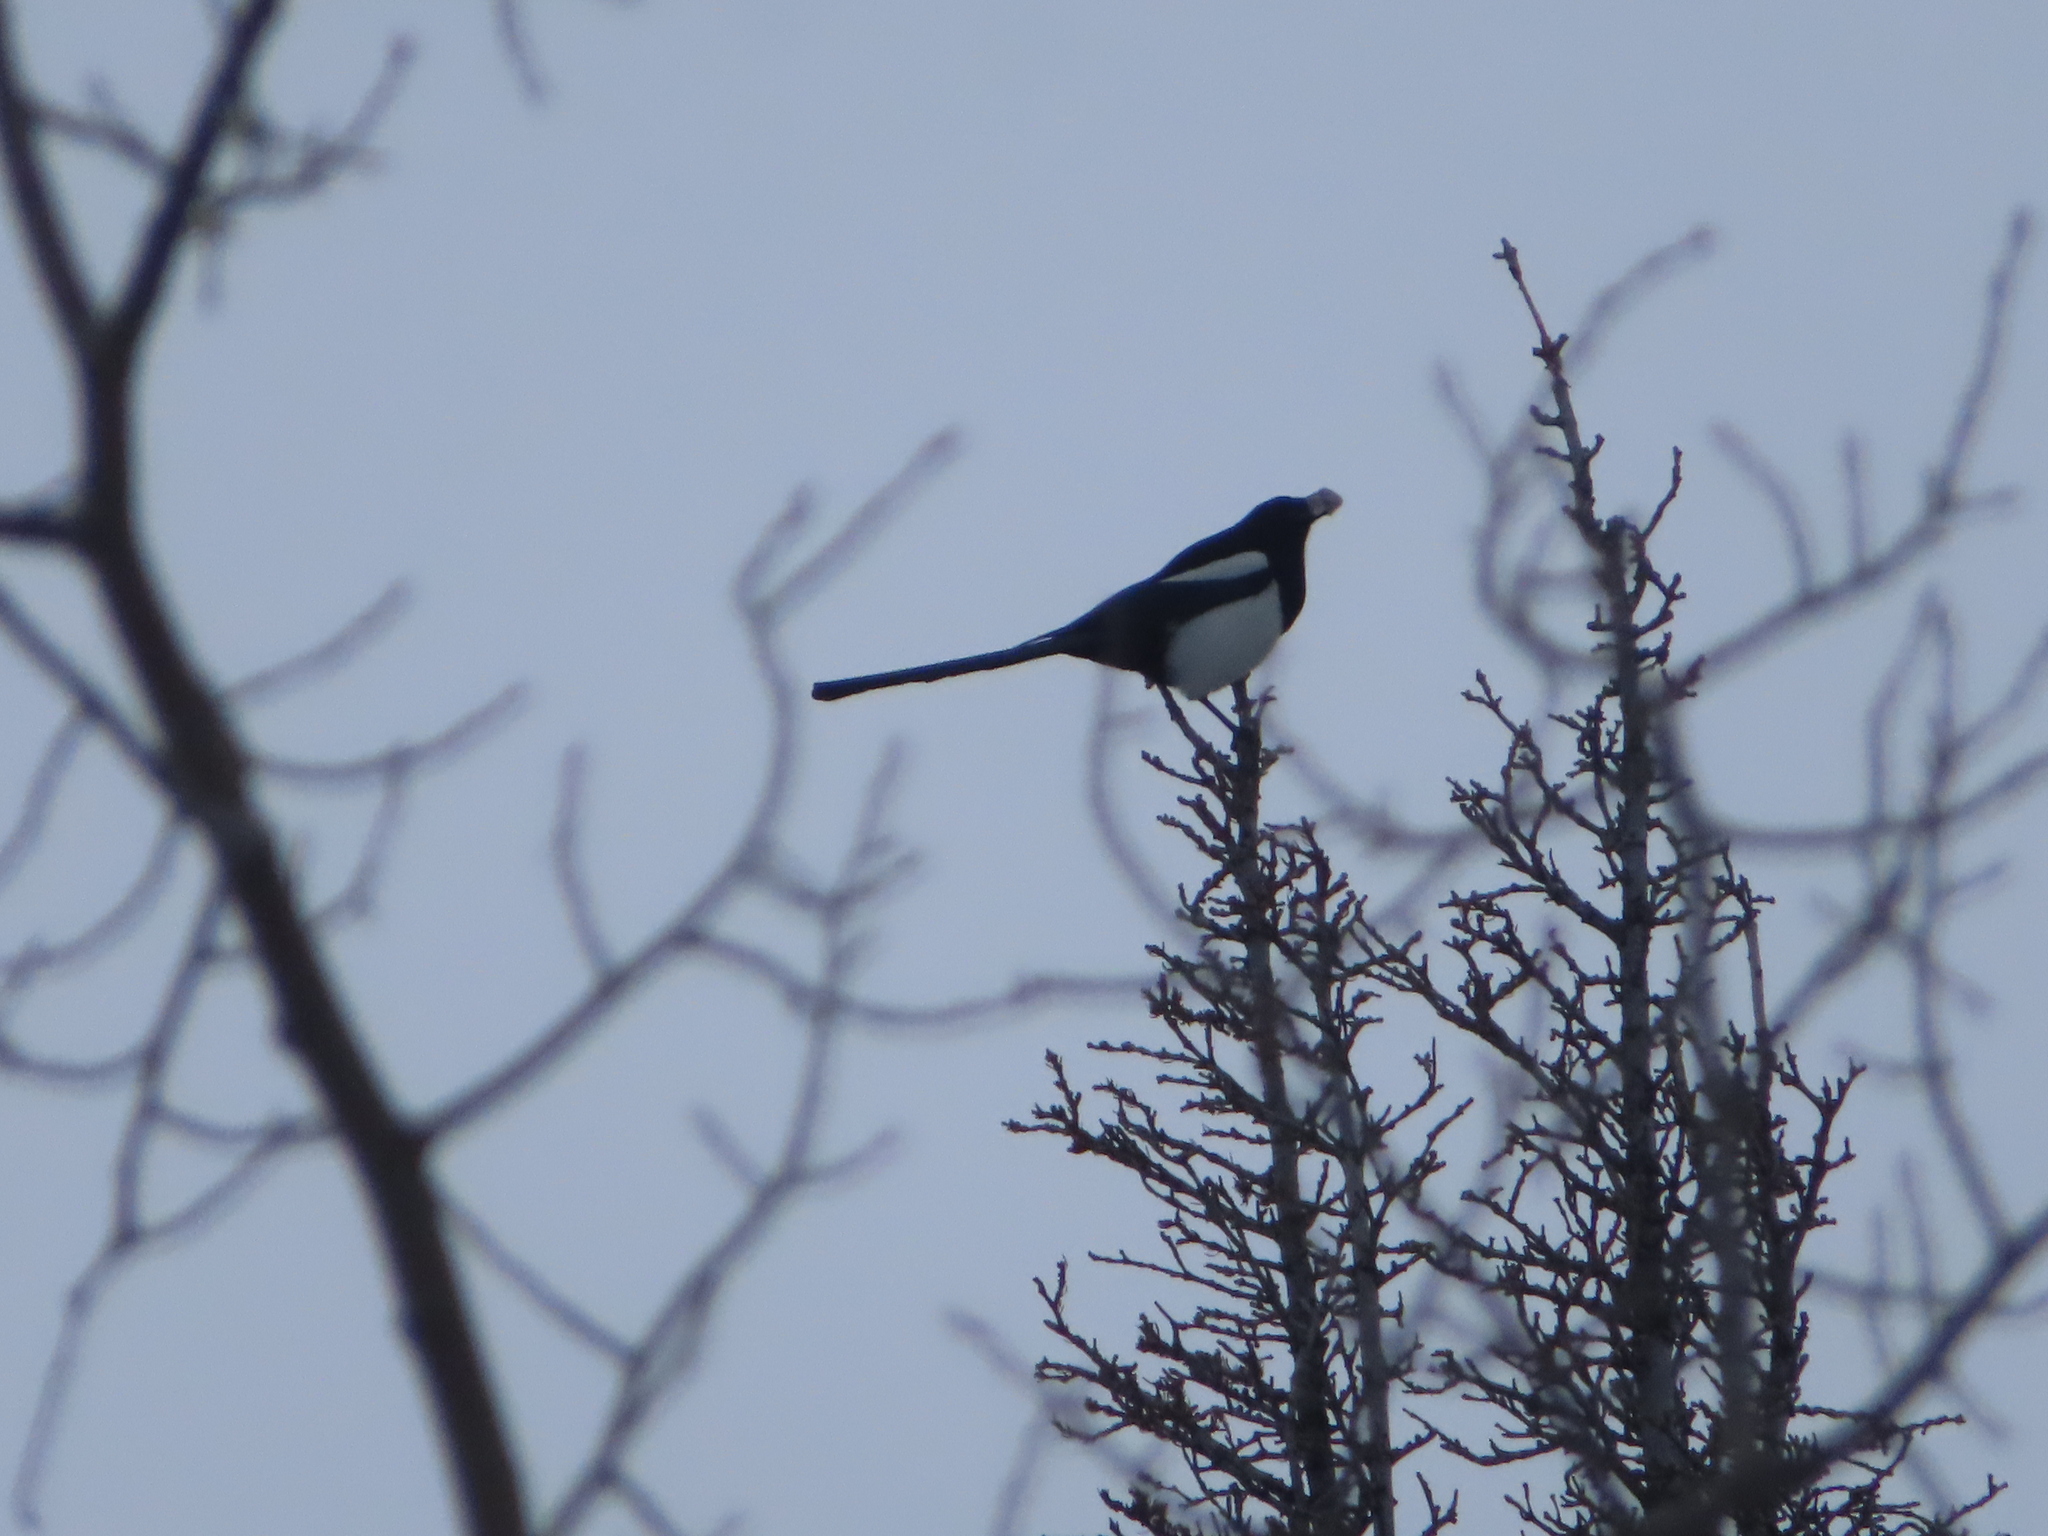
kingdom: Animalia
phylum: Chordata
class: Aves
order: Passeriformes
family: Corvidae
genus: Pica
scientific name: Pica hudsonia
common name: Black-billed magpie
